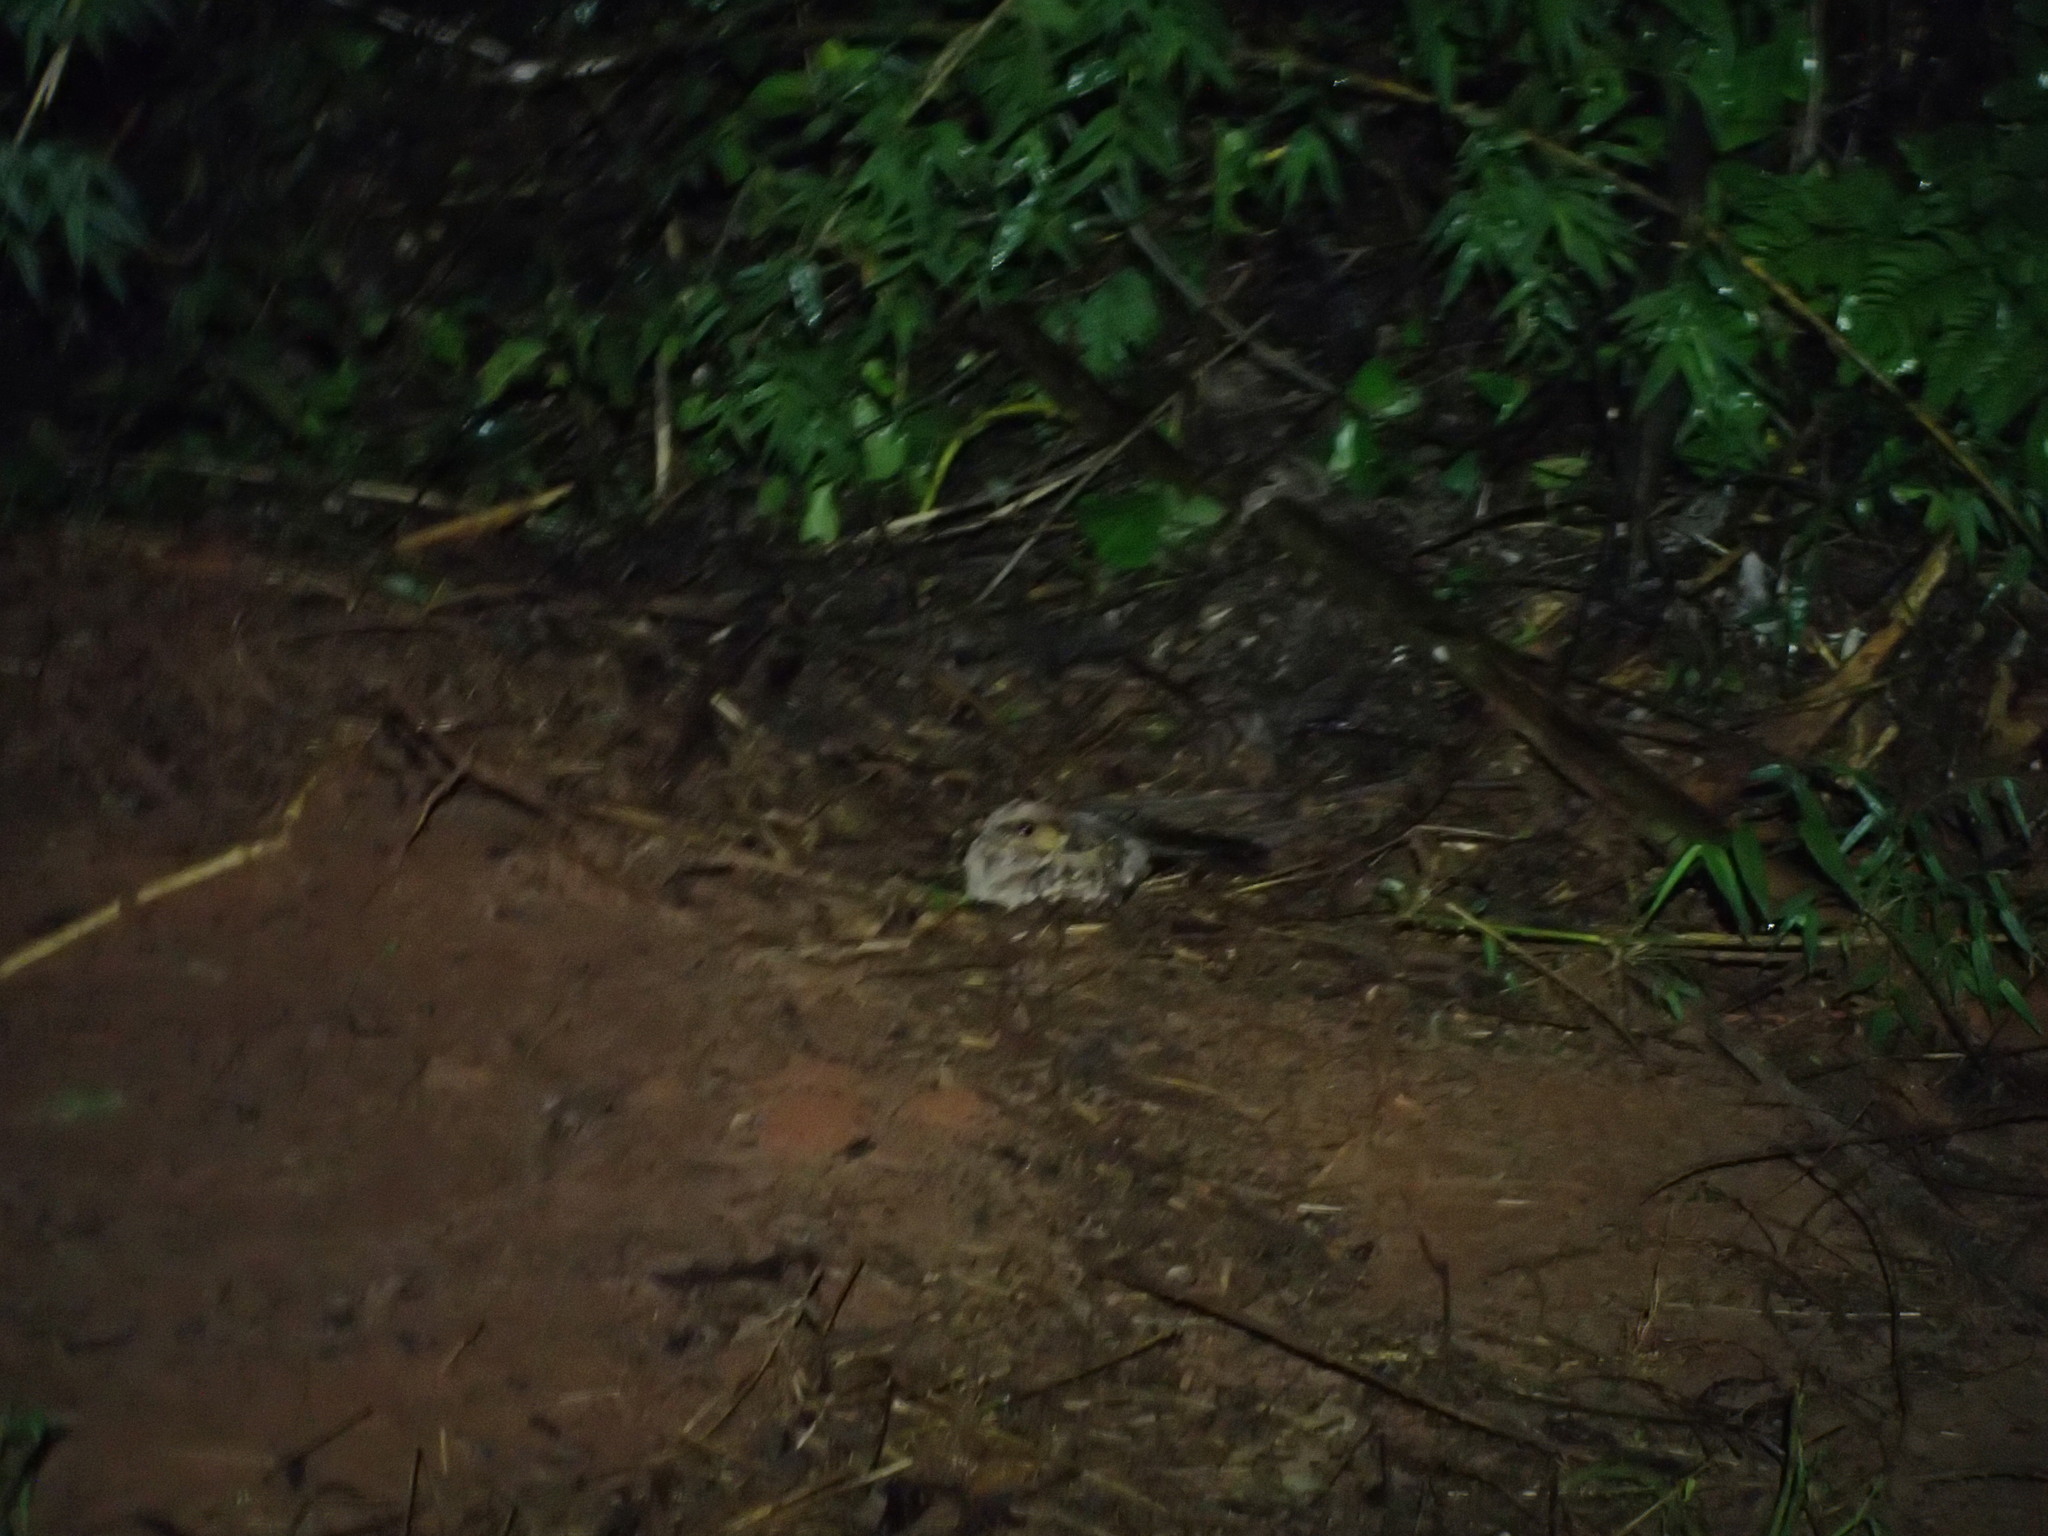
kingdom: Animalia
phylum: Chordata
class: Aves
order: Caprimulgiformes
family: Caprimulgidae
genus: Nyctidromus
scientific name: Nyctidromus albicollis
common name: Pauraque
